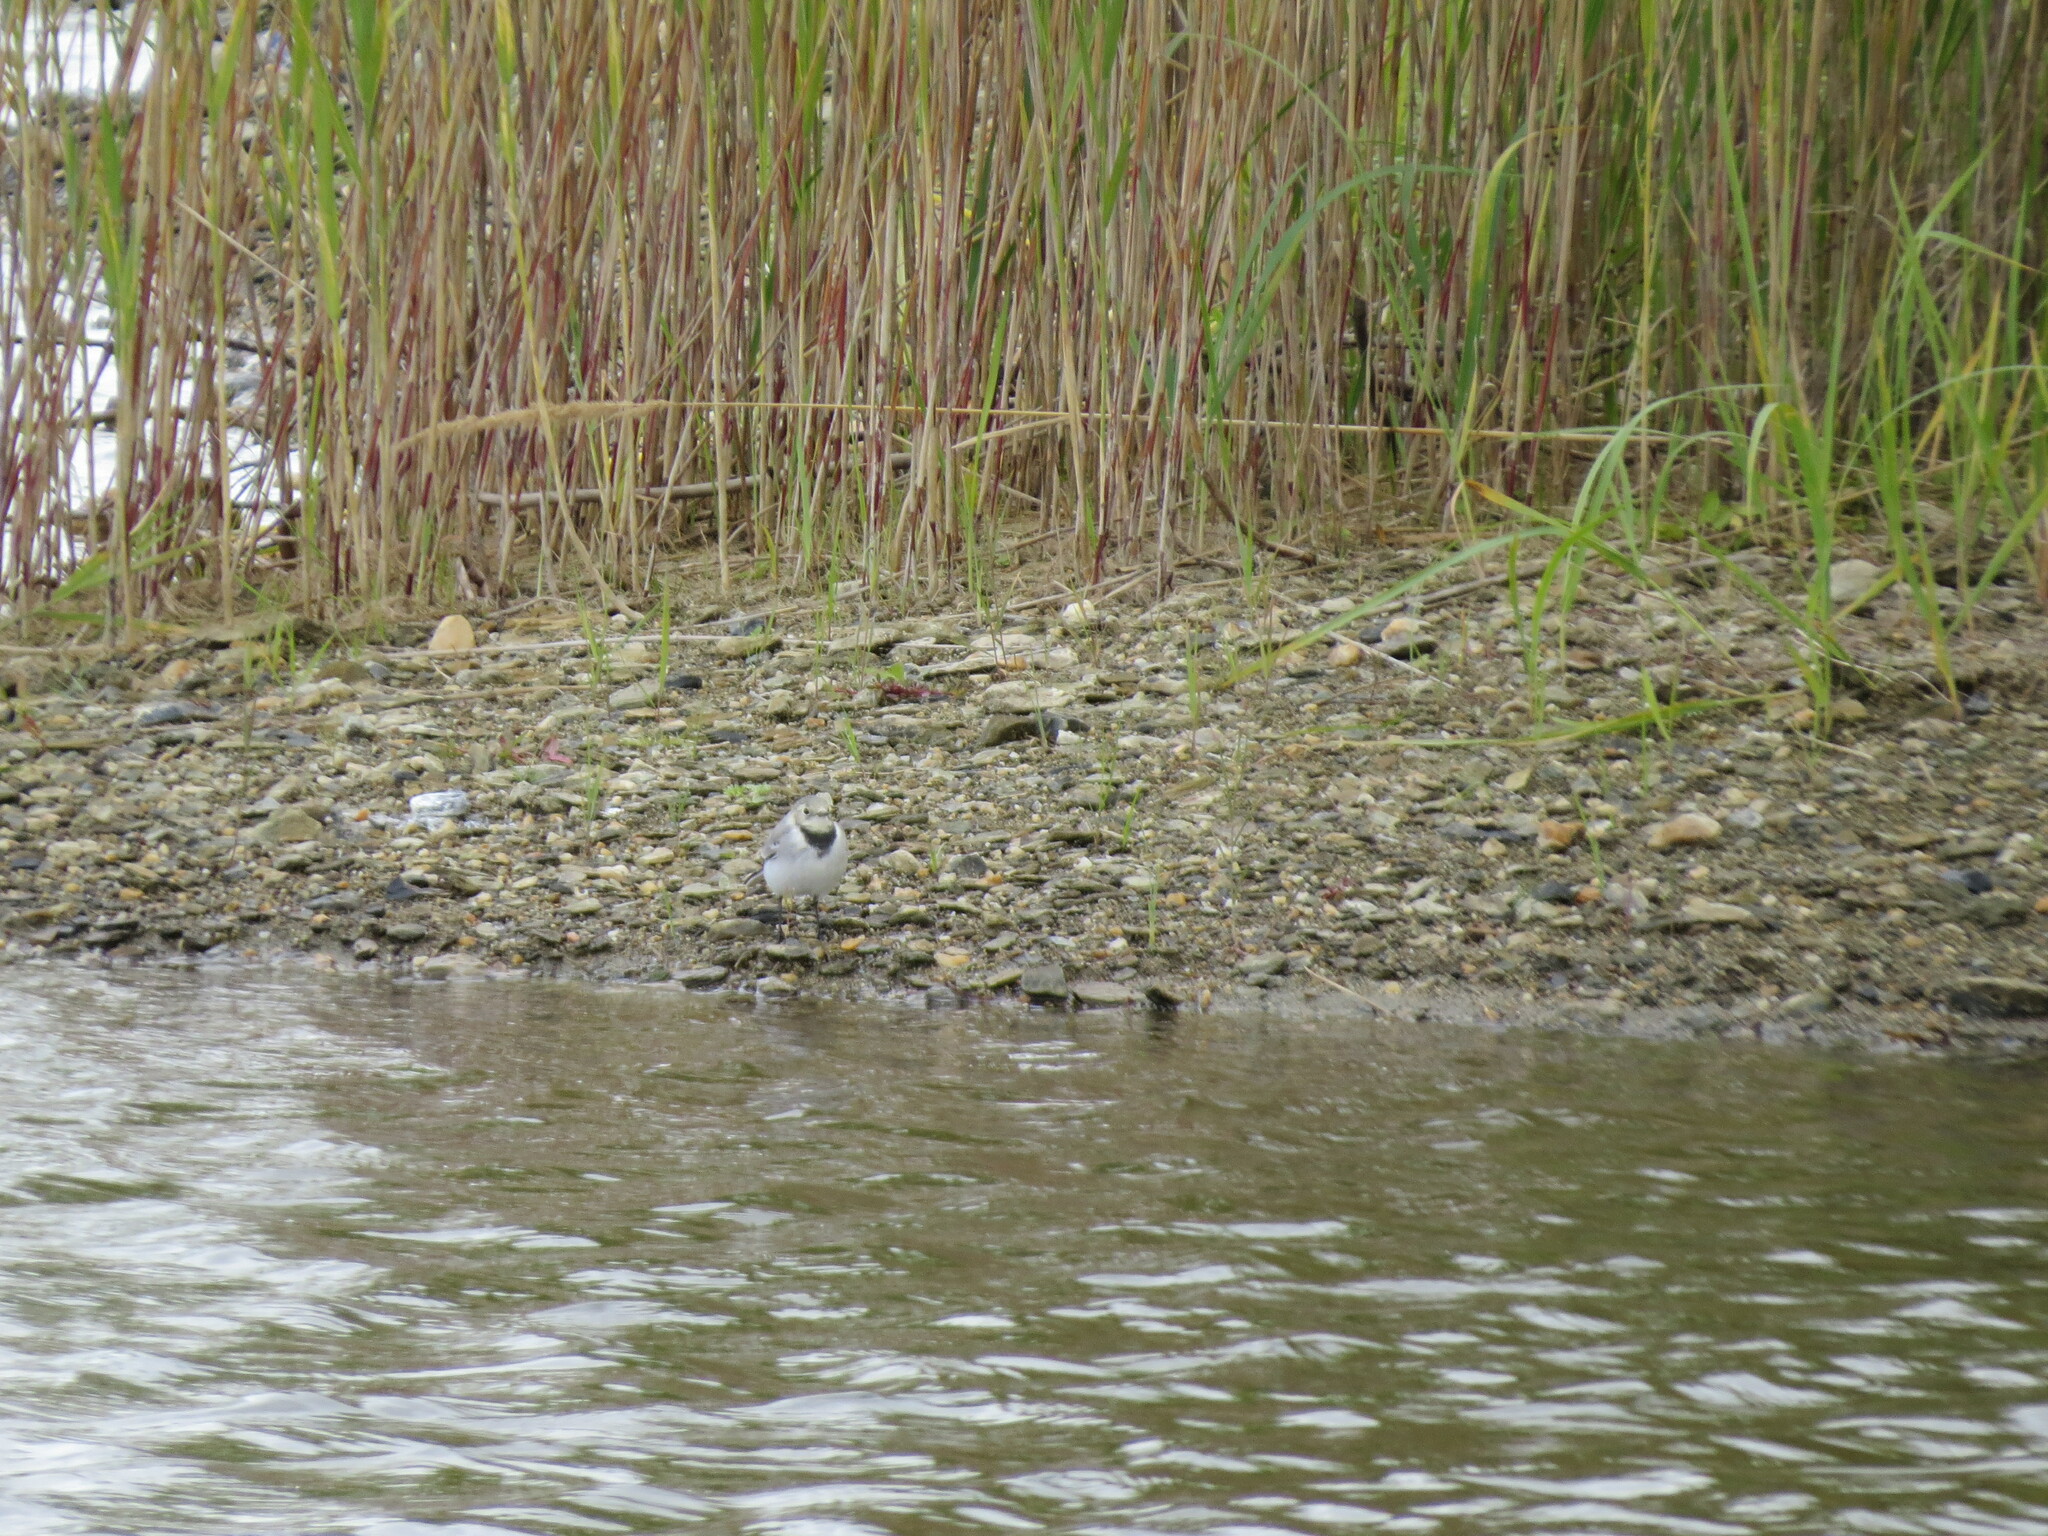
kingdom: Animalia
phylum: Chordata
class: Aves
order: Passeriformes
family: Motacillidae
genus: Motacilla
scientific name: Motacilla alba
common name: White wagtail
